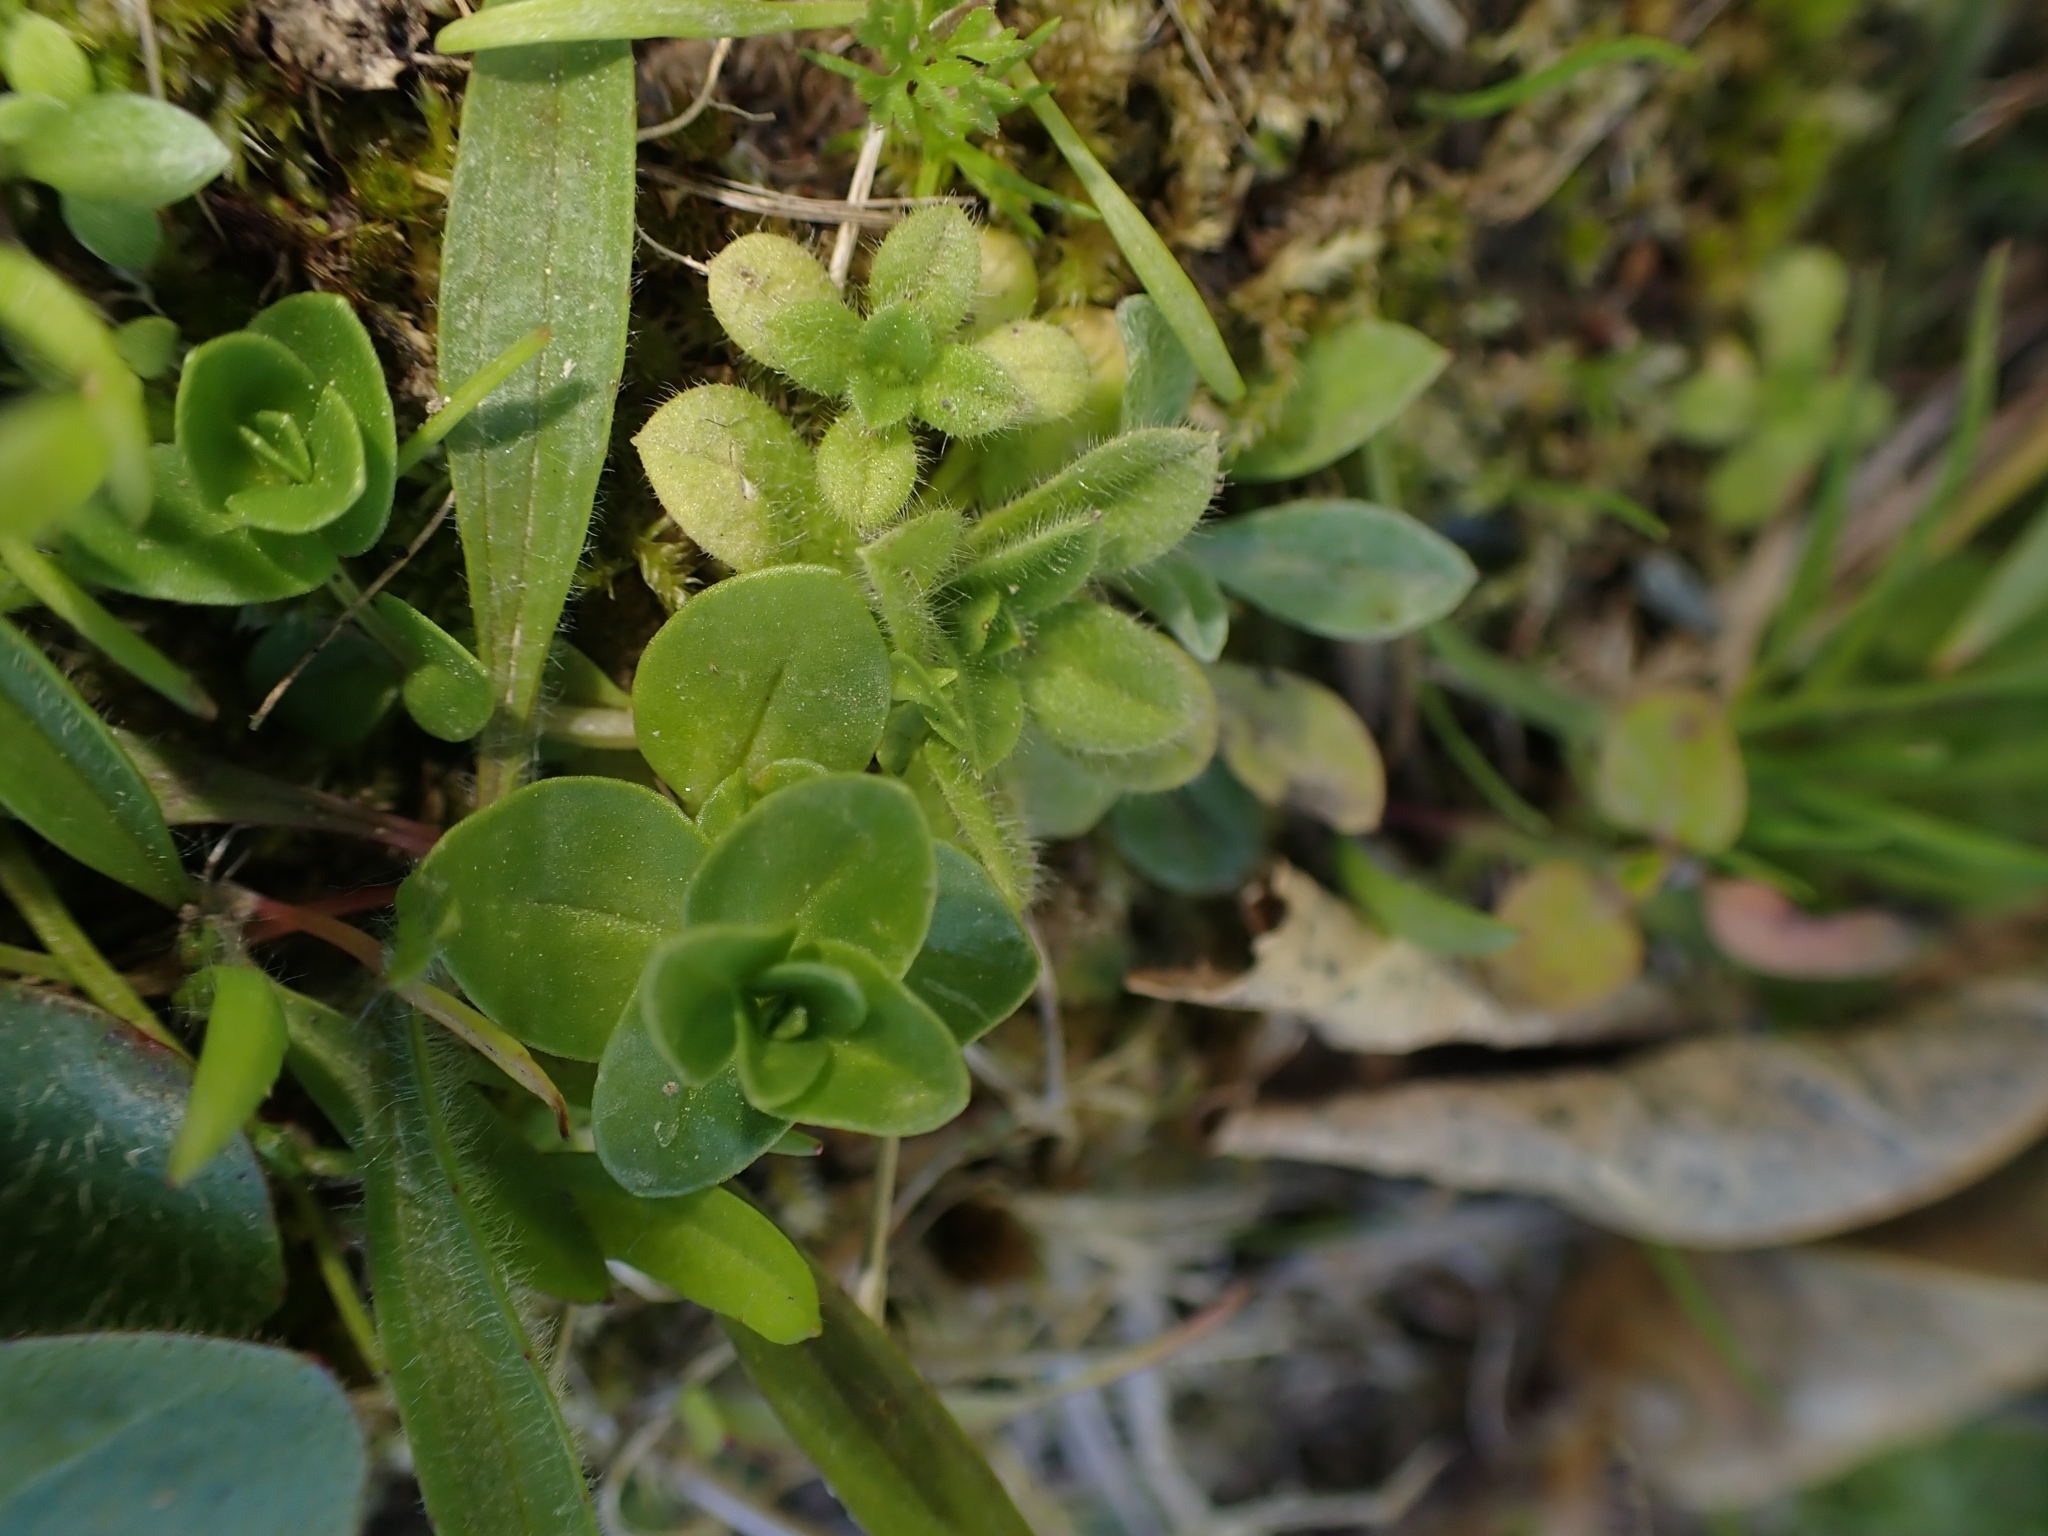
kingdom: Plantae
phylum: Tracheophyta
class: Magnoliopsida
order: Caryophyllales
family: Caryophyllaceae
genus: Cerastium
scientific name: Cerastium glomeratum
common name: Sticky chickweed
